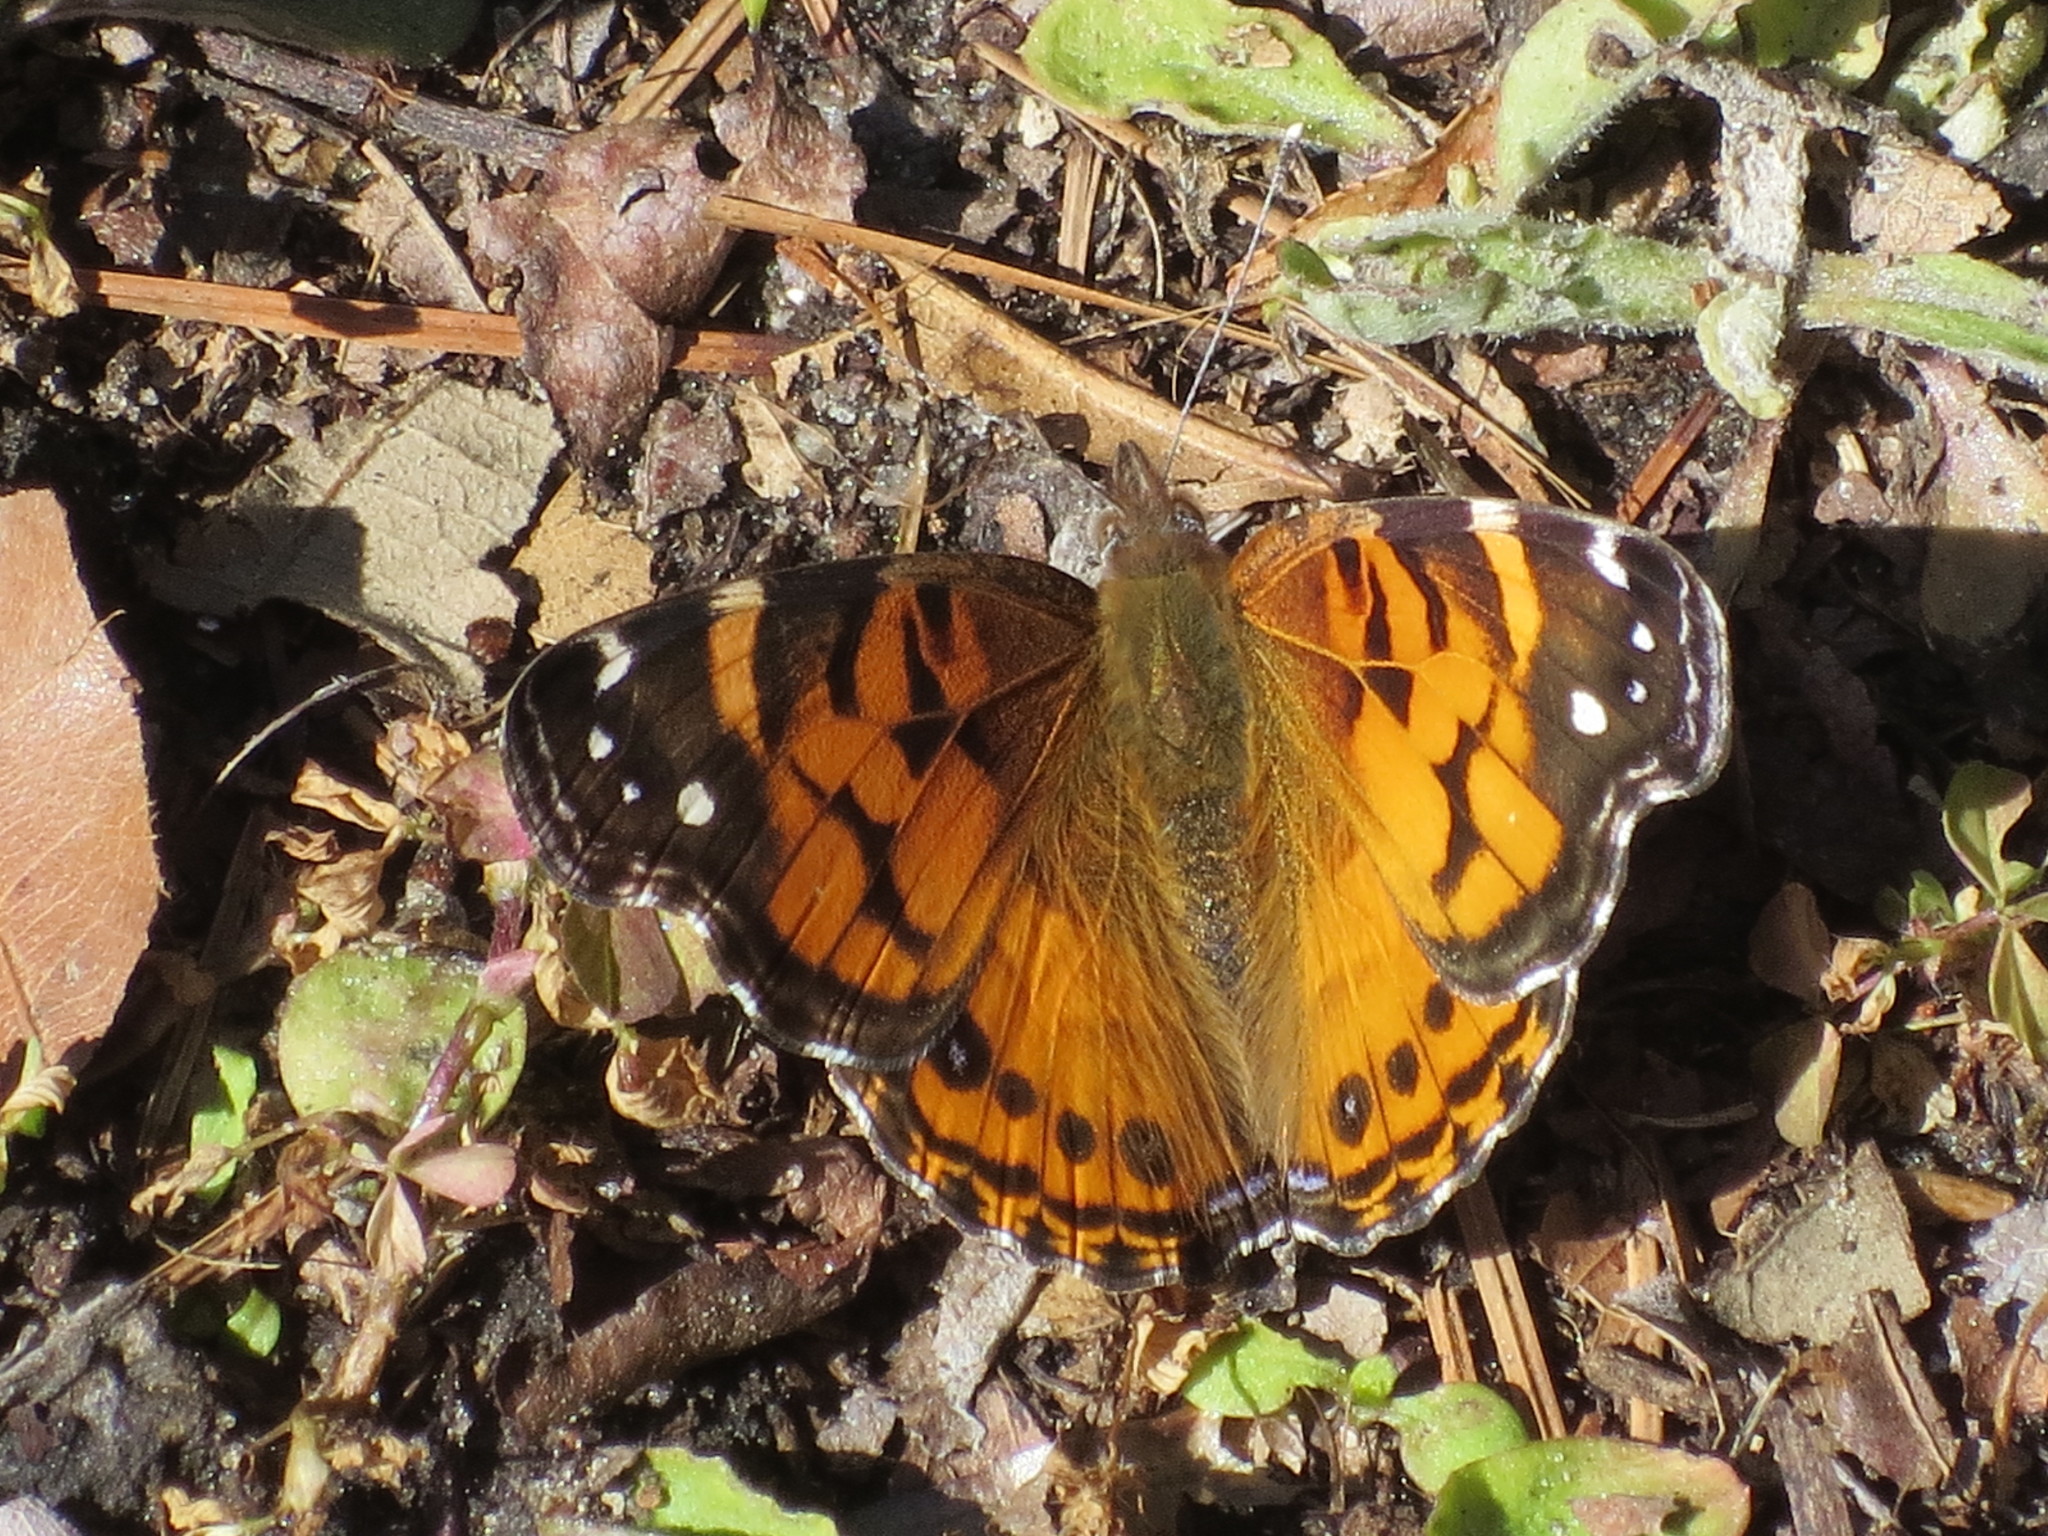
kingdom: Animalia
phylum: Arthropoda
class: Insecta
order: Lepidoptera
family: Nymphalidae
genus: Vanessa
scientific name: Vanessa virginiensis
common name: American lady
